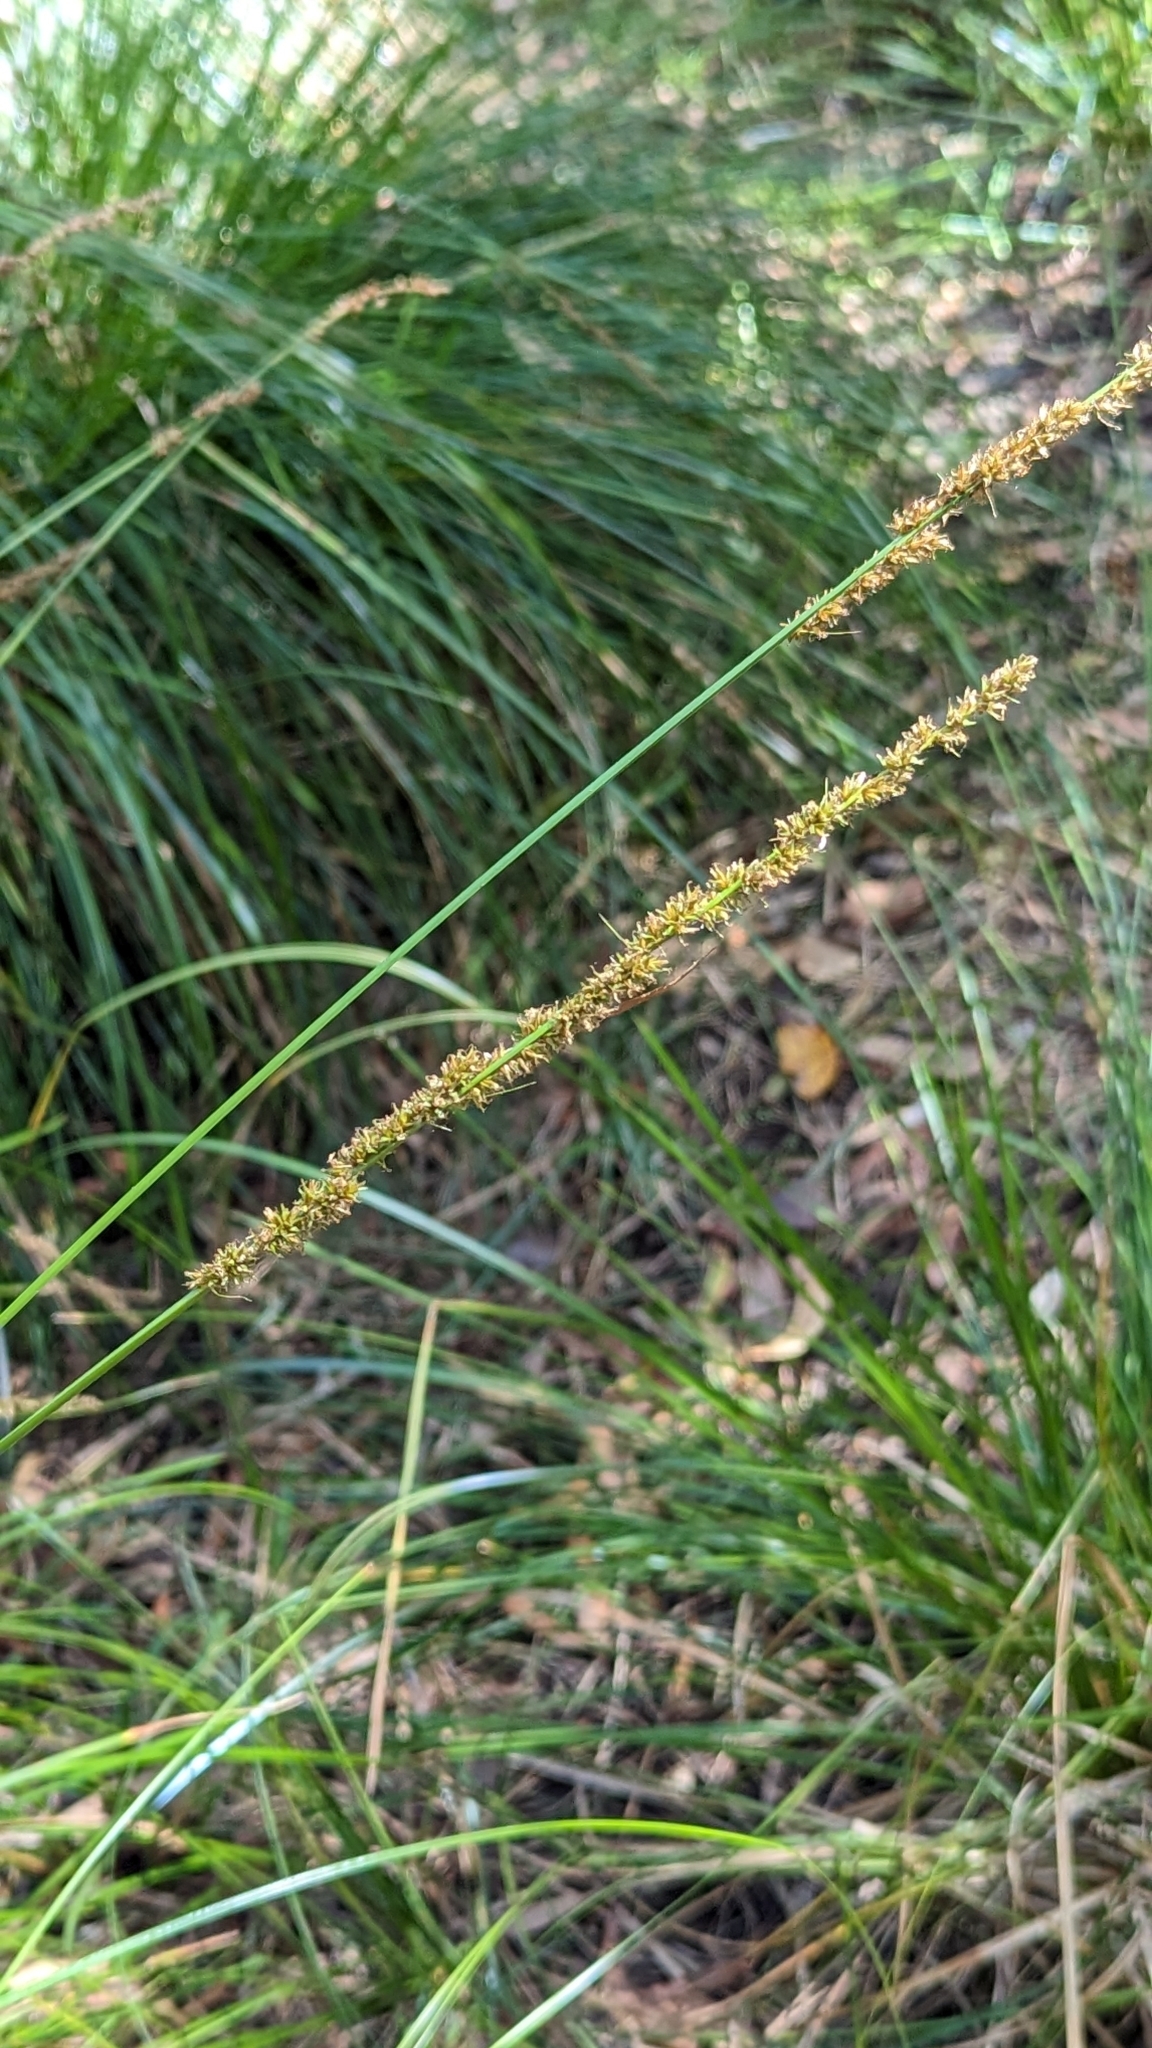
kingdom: Plantae
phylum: Tracheophyta
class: Liliopsida
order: Poales
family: Cyperaceae
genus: Carex
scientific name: Carex appressa
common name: Tussock sedge
